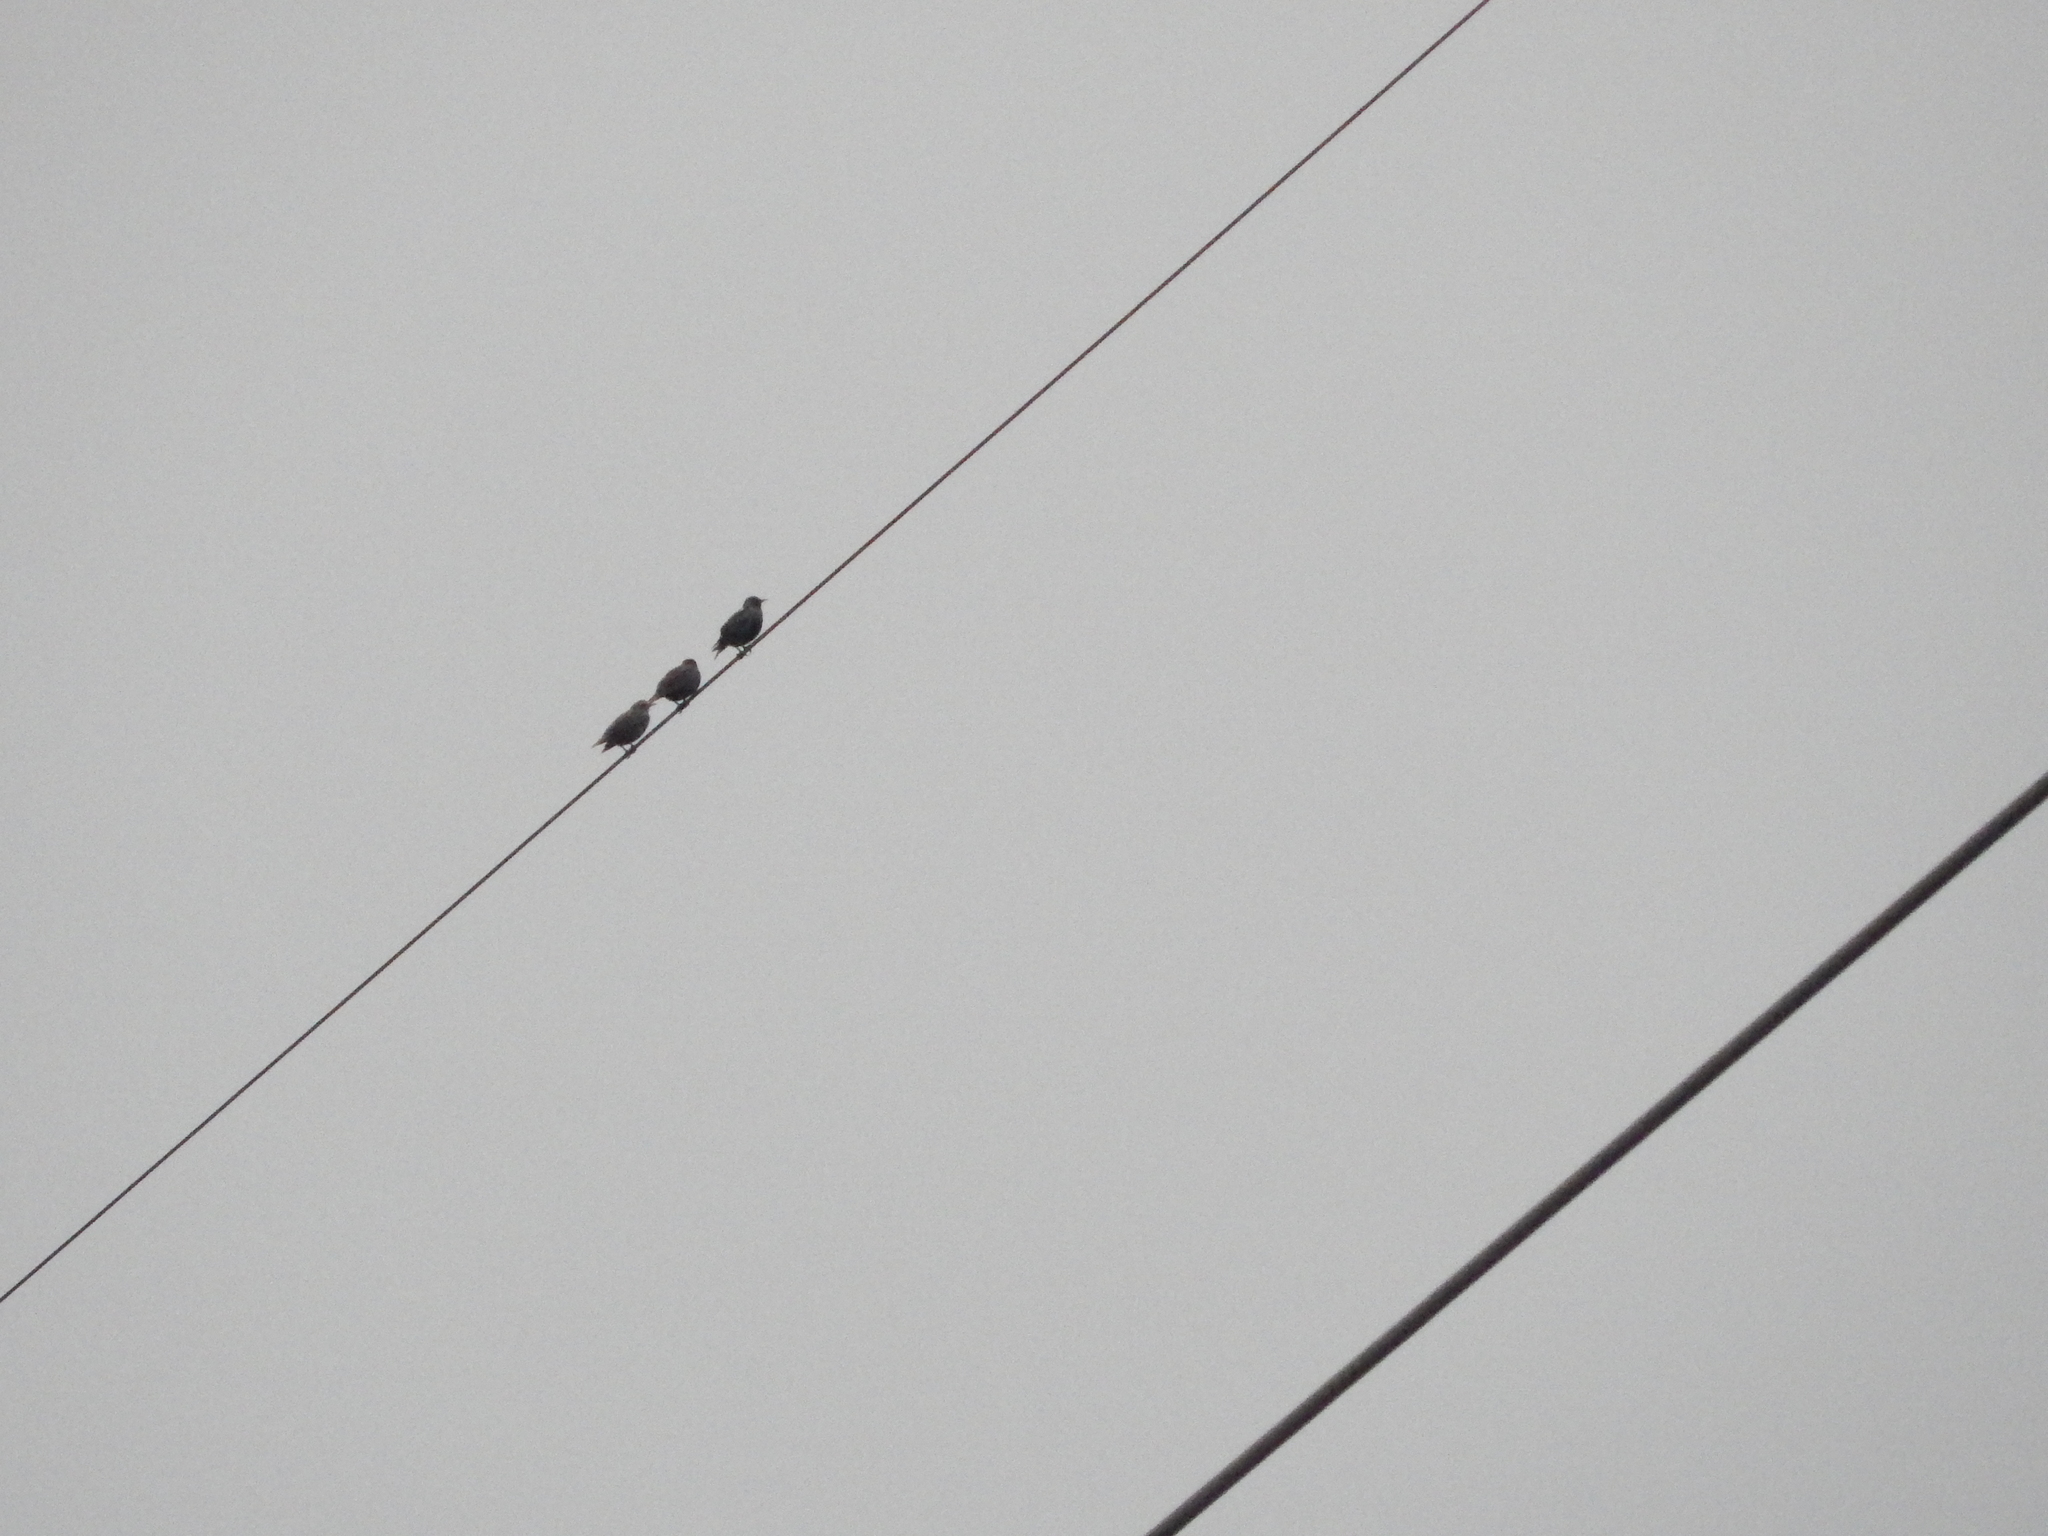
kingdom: Animalia
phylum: Chordata
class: Aves
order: Passeriformes
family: Sturnidae
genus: Sturnus
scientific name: Sturnus vulgaris
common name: Common starling
